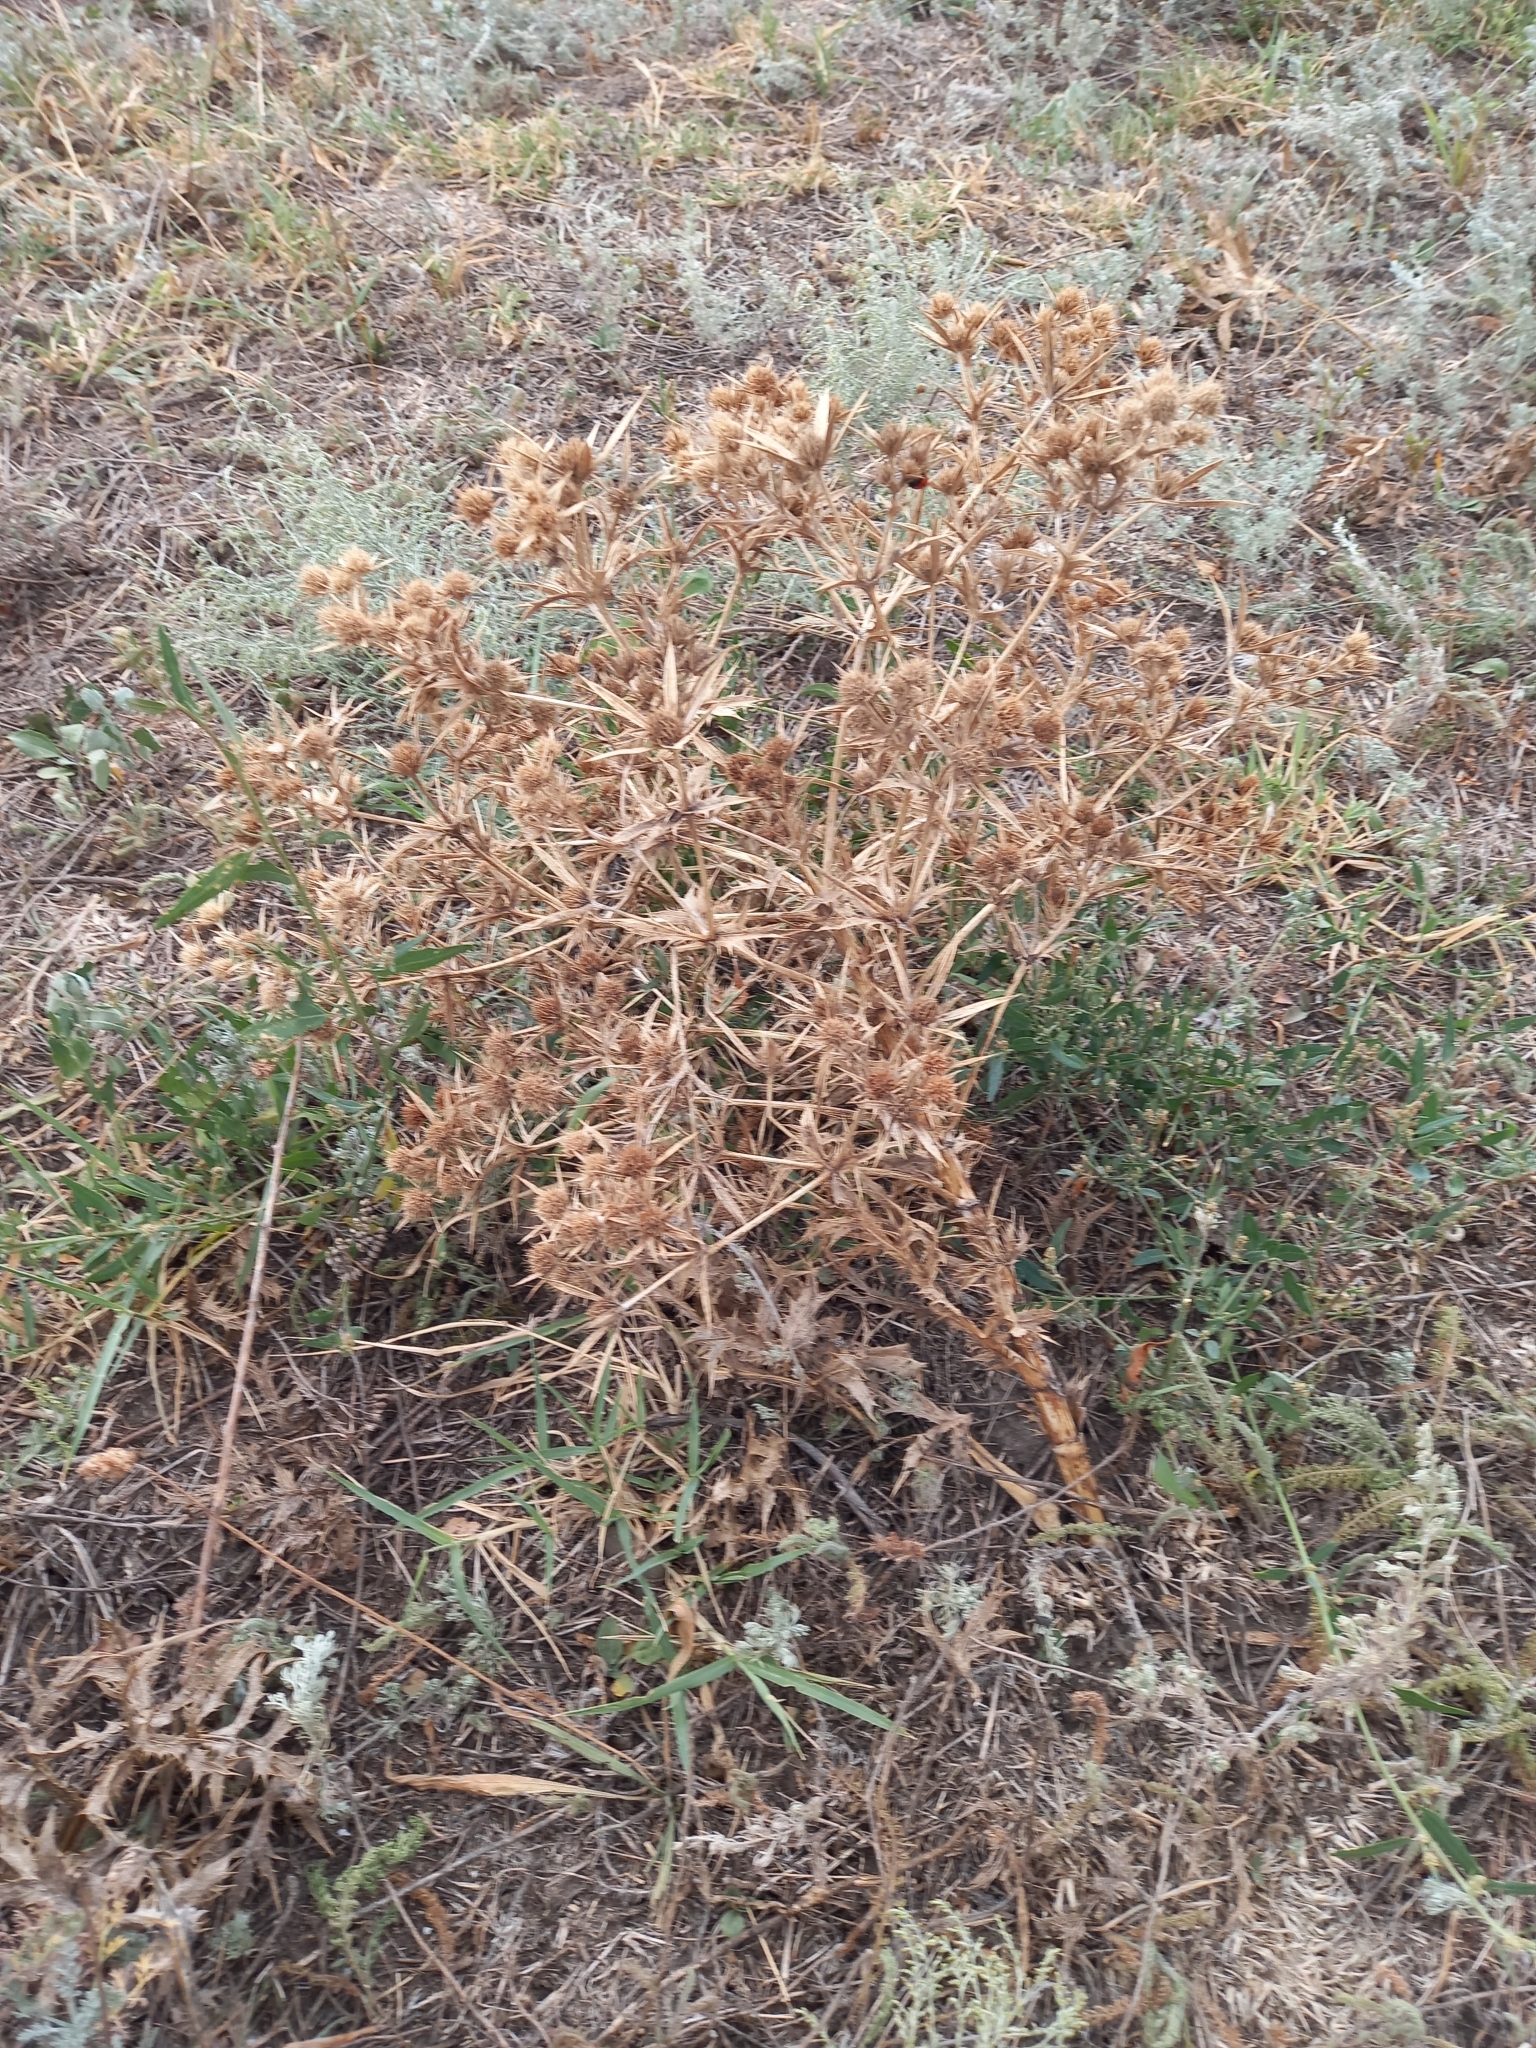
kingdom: Plantae
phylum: Tracheophyta
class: Magnoliopsida
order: Apiales
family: Apiaceae
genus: Eryngium
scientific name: Eryngium campestre
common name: Field eryngo
